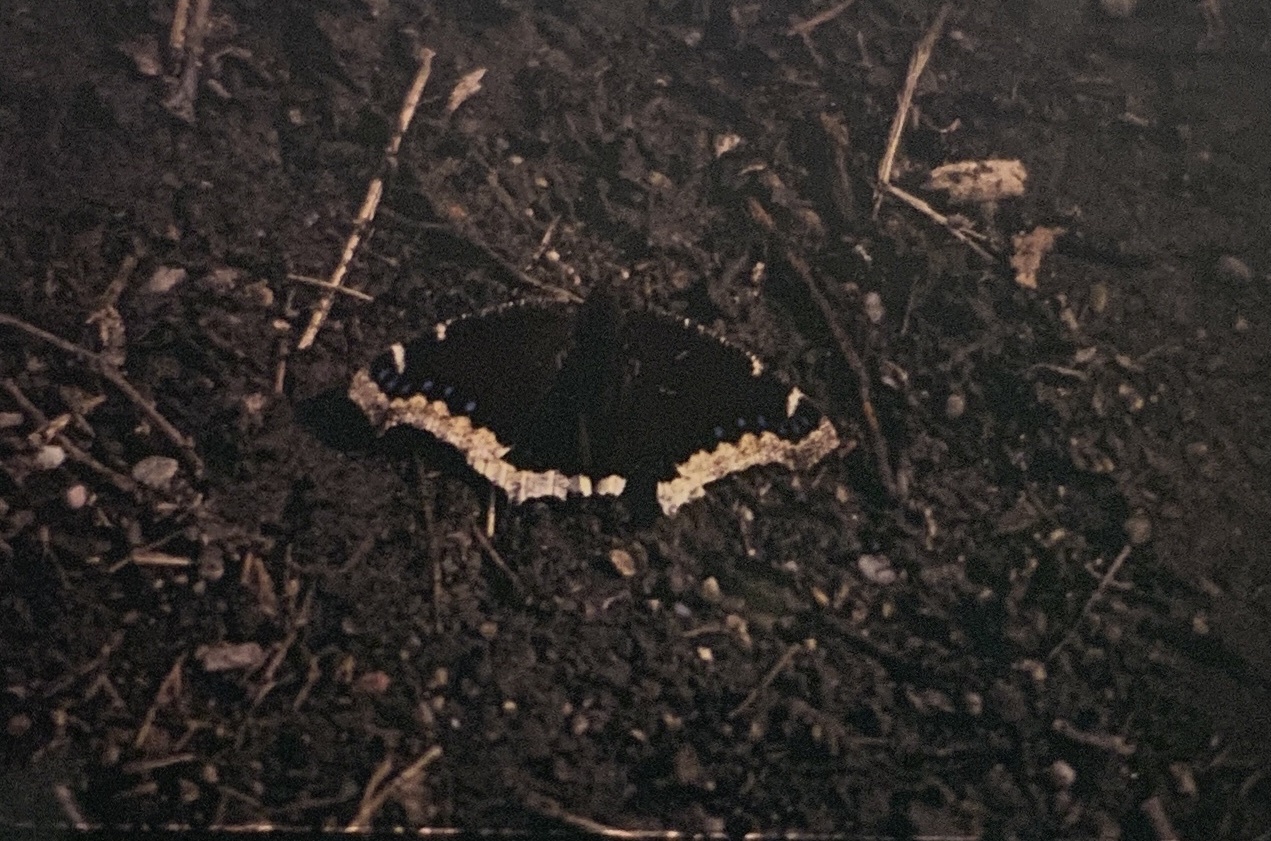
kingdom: Animalia
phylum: Arthropoda
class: Insecta
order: Lepidoptera
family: Nymphalidae
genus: Nymphalis
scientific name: Nymphalis antiopa
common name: Camberwell beauty
